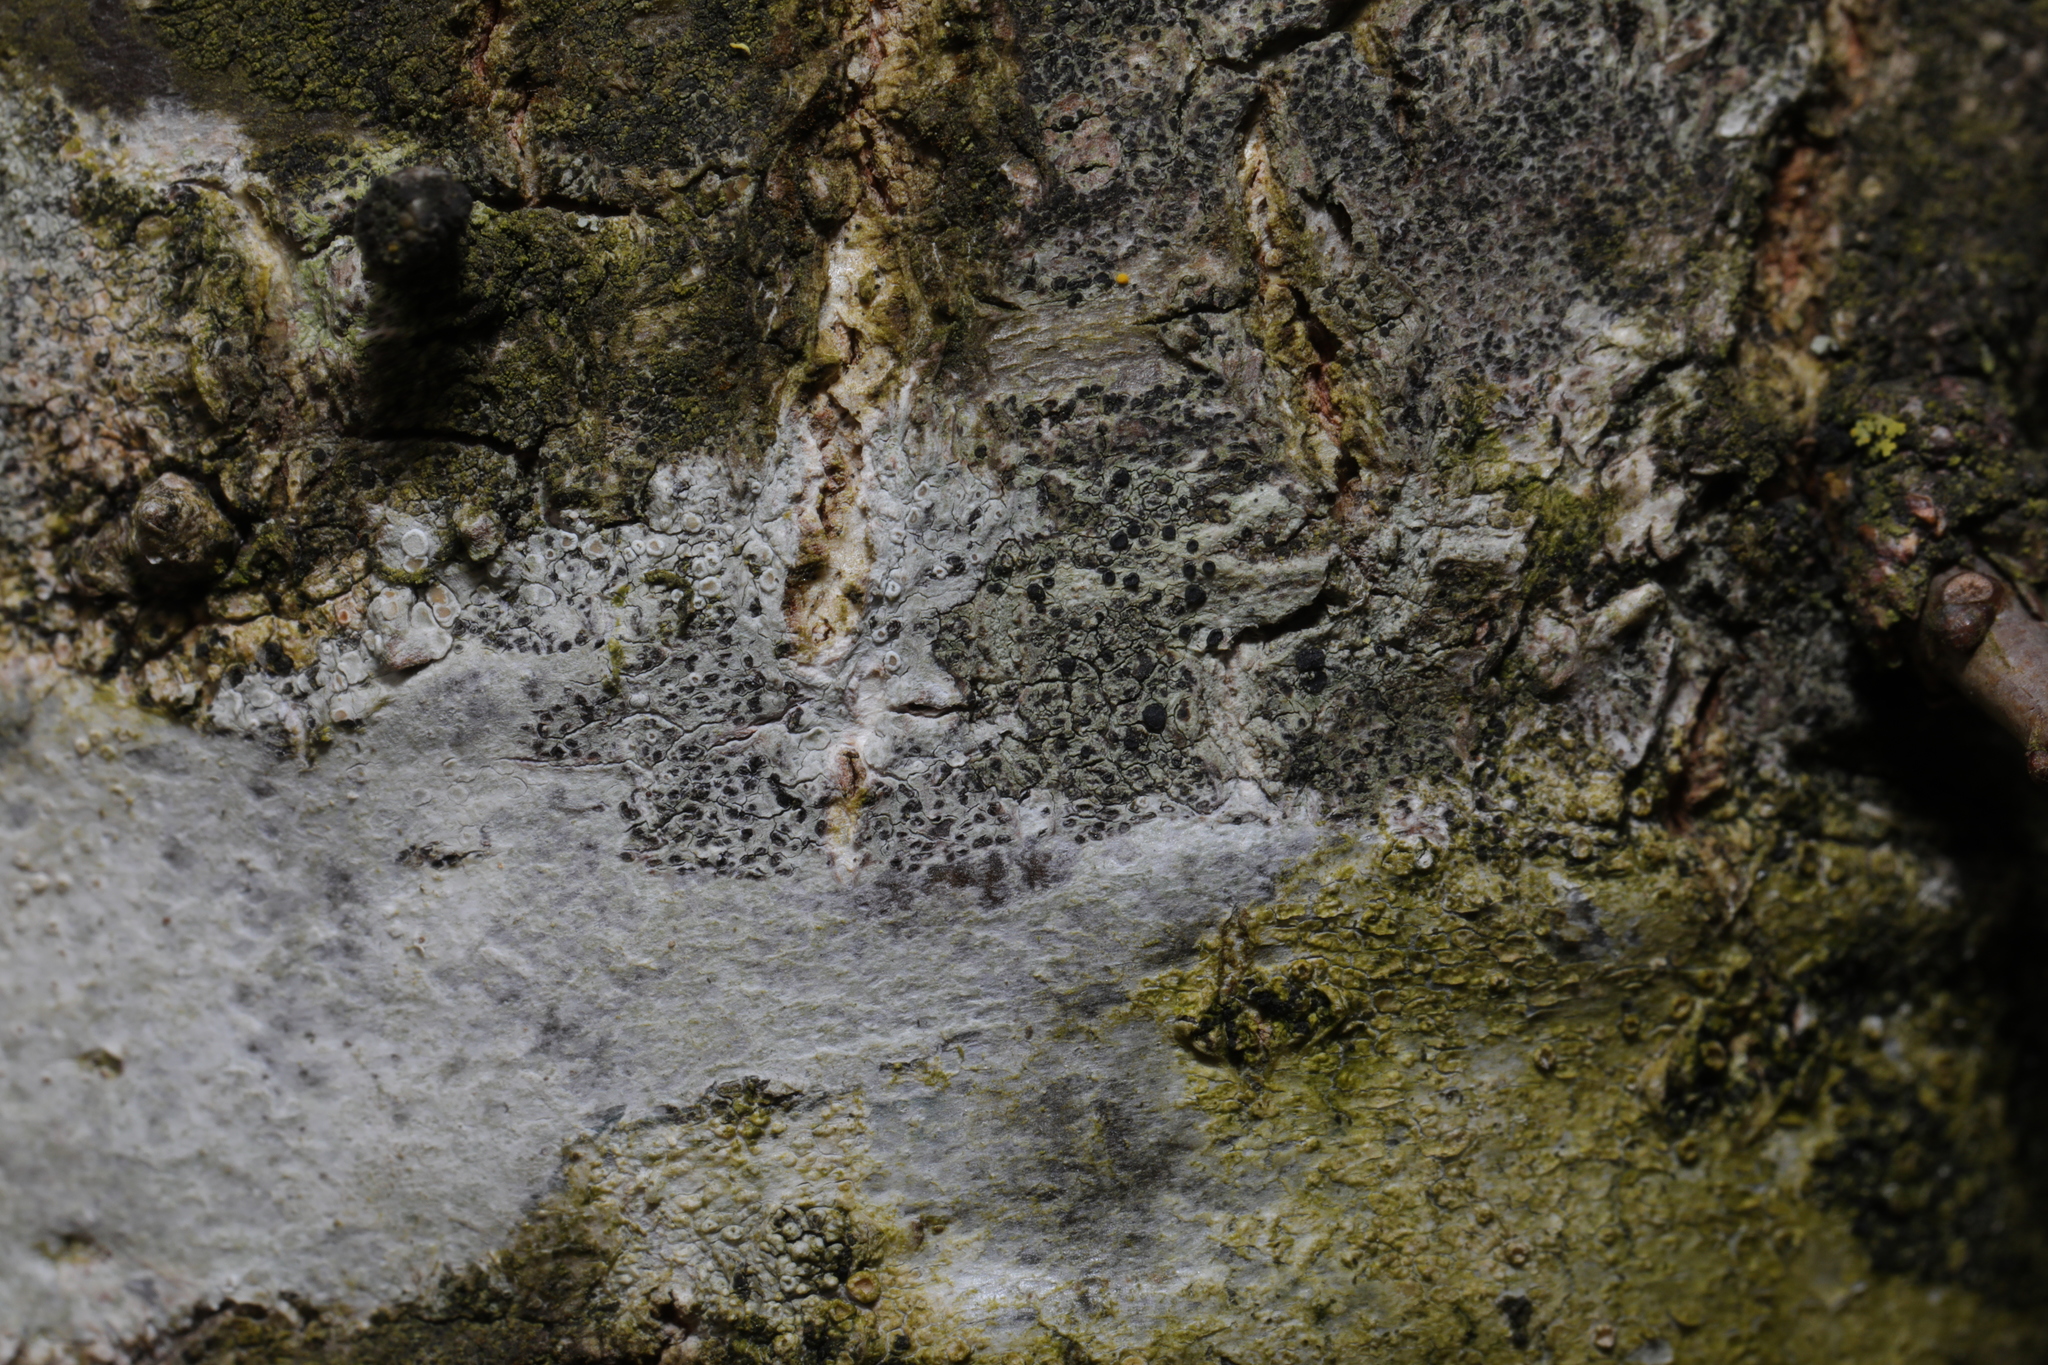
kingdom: Fungi
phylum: Ascomycota
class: Lecanoromycetes
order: Lecanorales
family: Lecanoraceae
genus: Lecidella
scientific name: Lecidella elaeochroma
